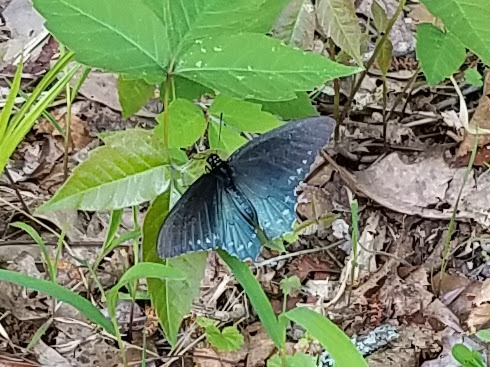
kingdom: Animalia
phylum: Arthropoda
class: Insecta
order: Lepidoptera
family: Papilionidae
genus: Battus
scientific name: Battus philenor
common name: Pipevine swallowtail
